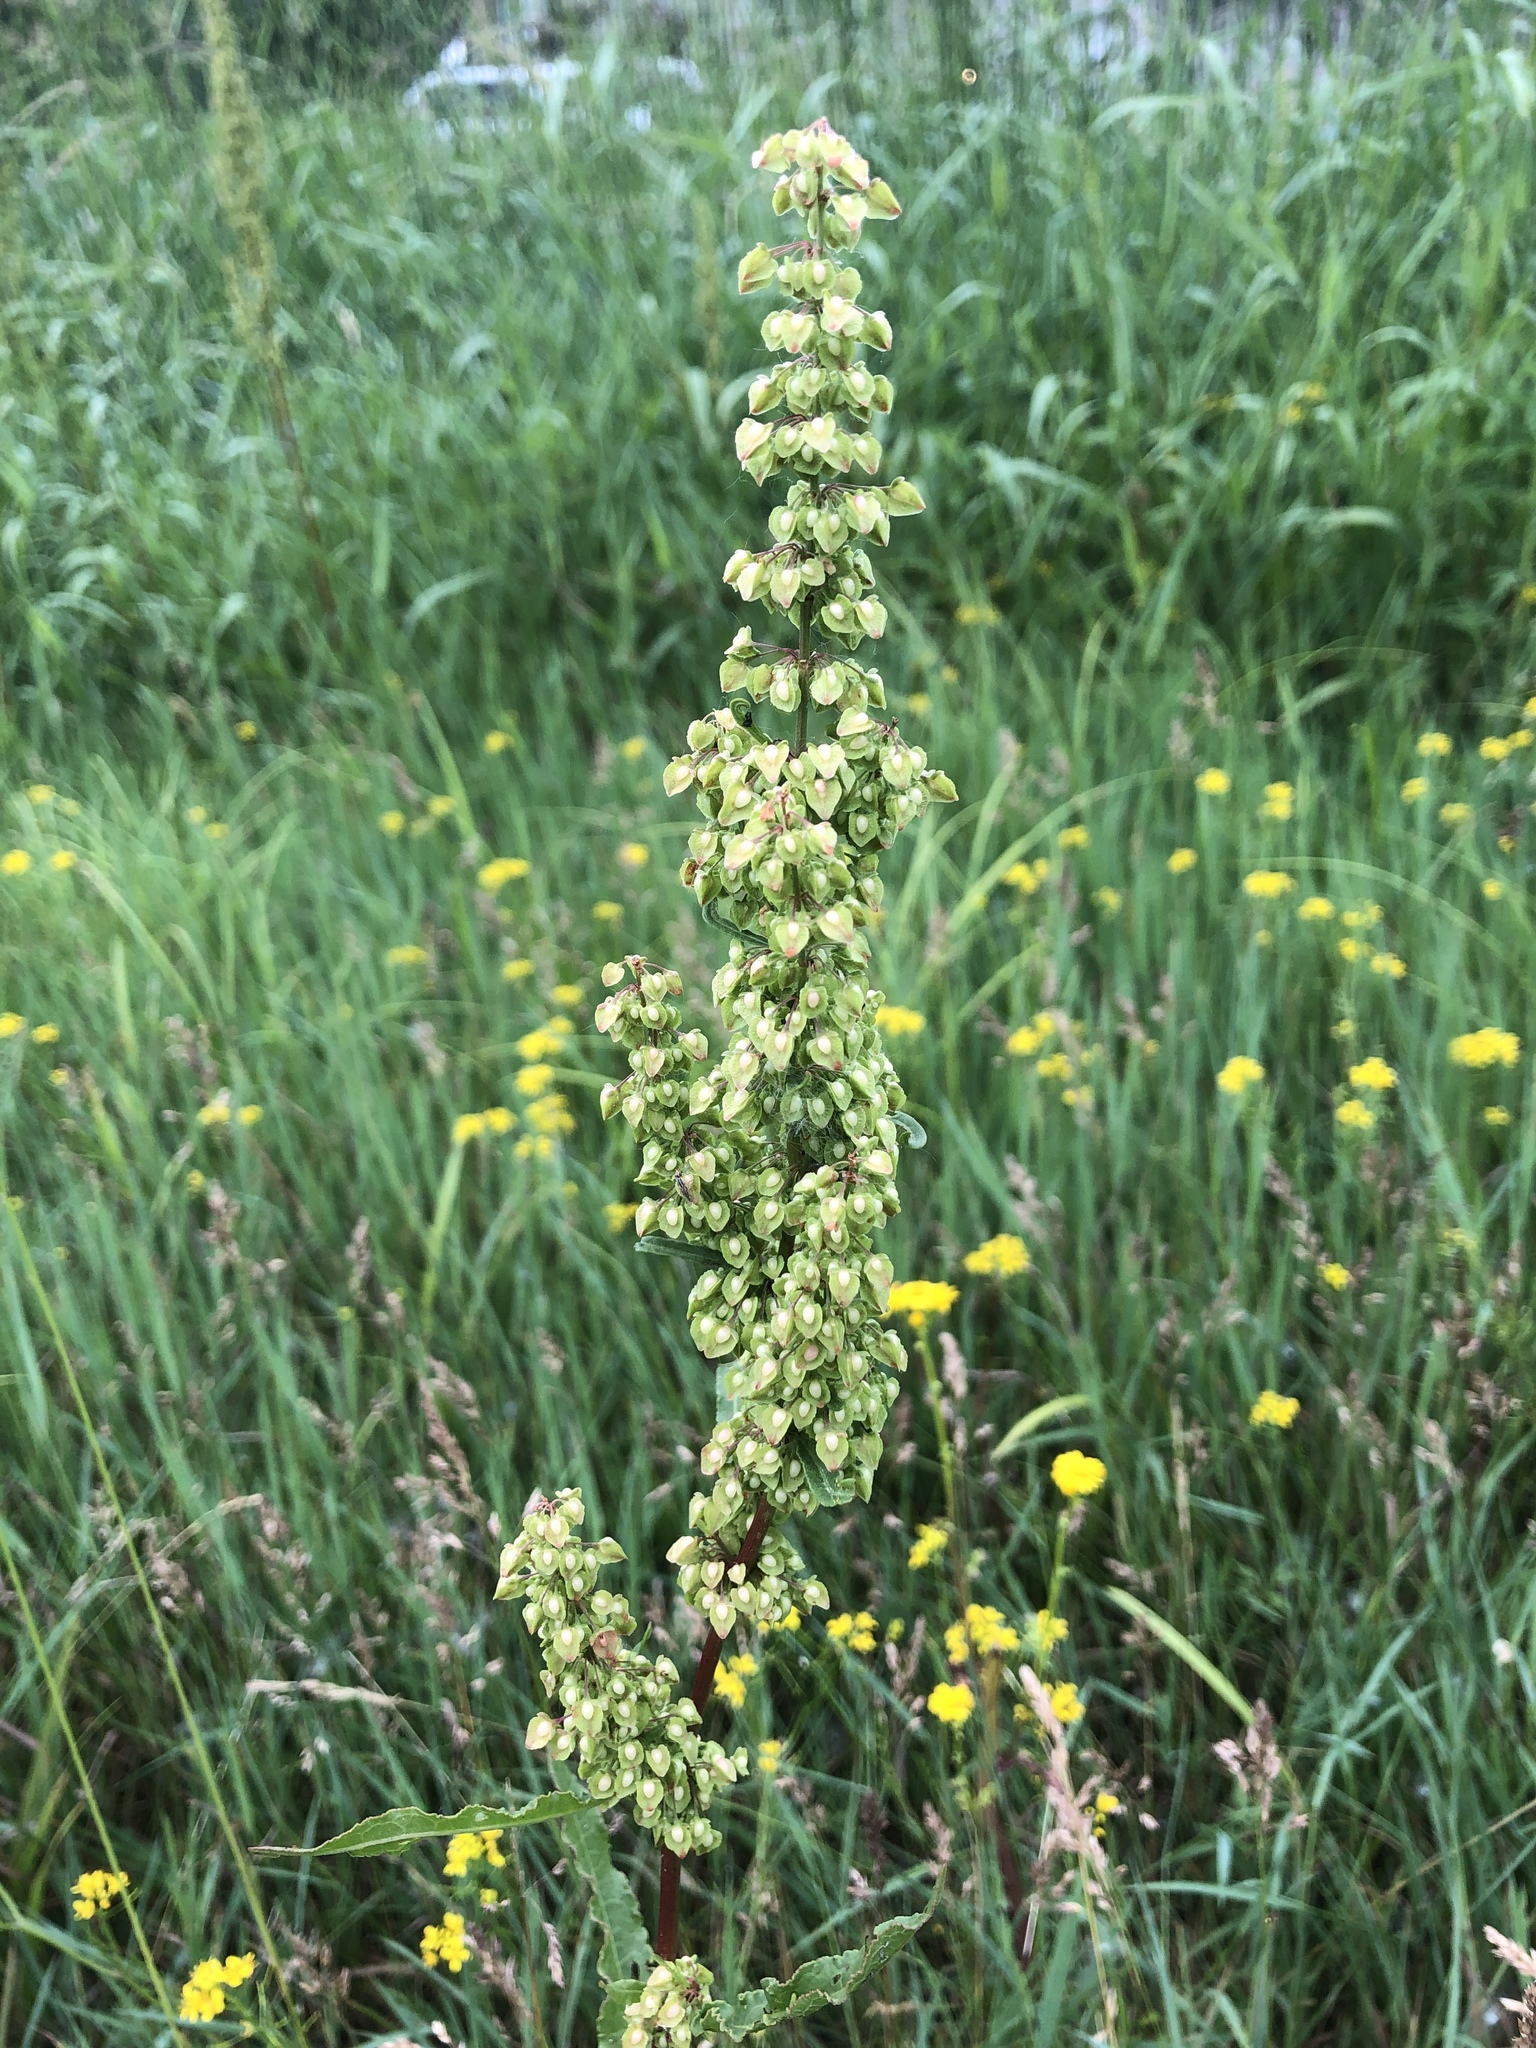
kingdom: Plantae
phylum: Tracheophyta
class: Magnoliopsida
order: Caryophyllales
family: Polygonaceae
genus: Rumex
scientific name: Rumex crispus
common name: Curled dock
